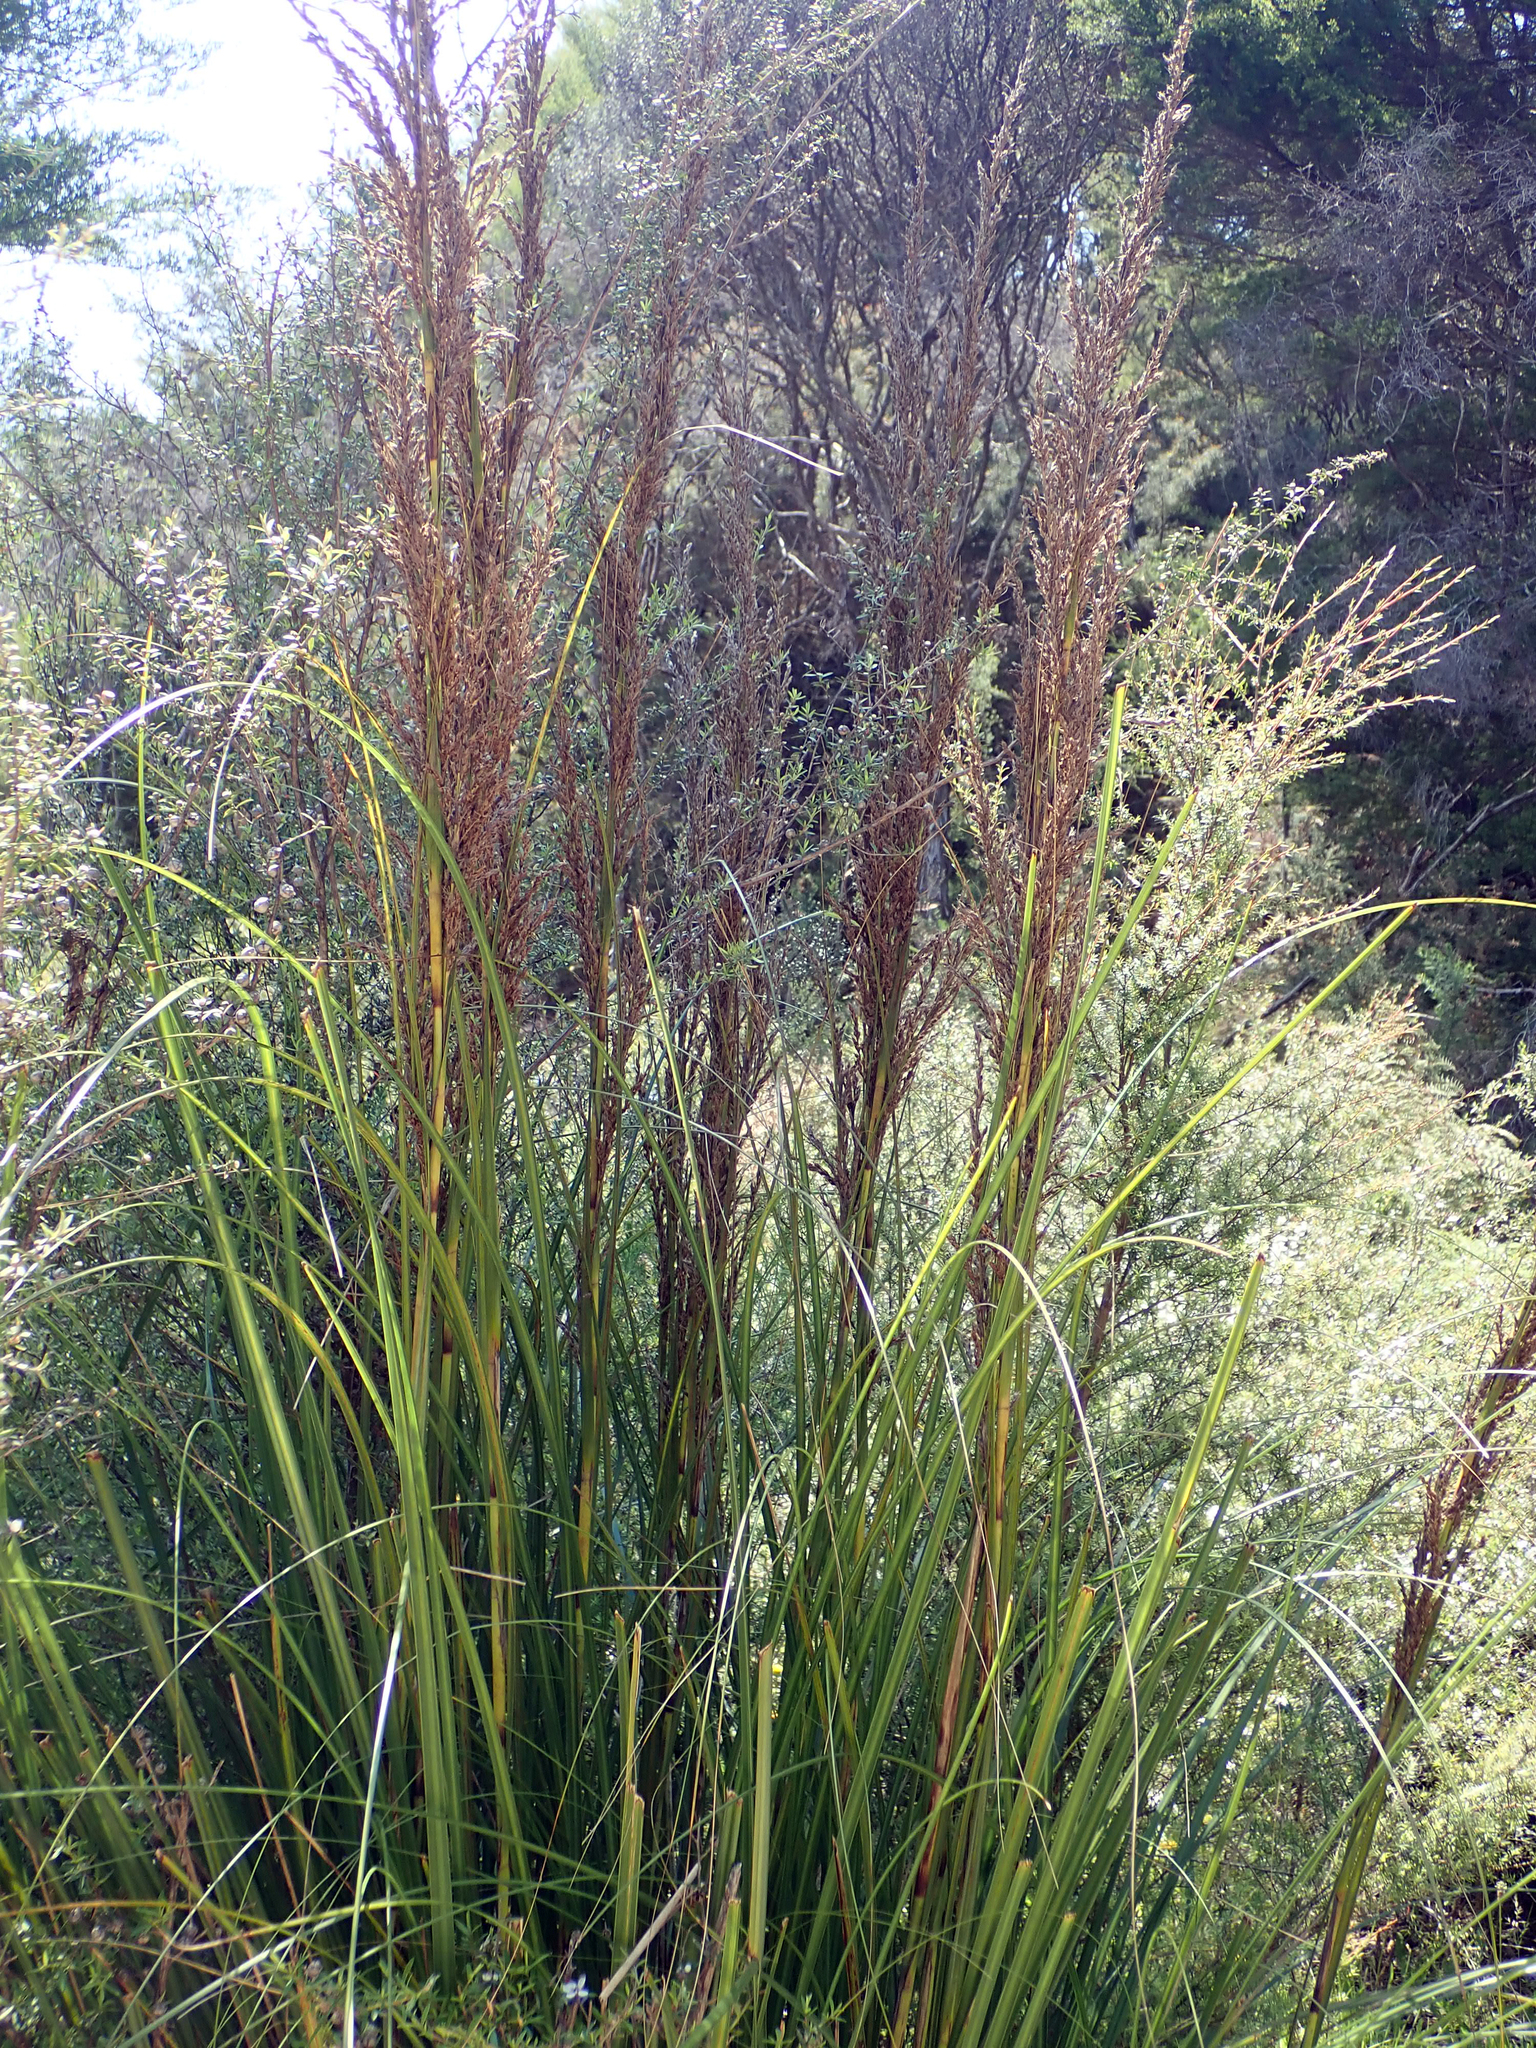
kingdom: Plantae
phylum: Tracheophyta
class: Liliopsida
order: Poales
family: Cyperaceae
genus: Gahnia
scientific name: Gahnia rigida
